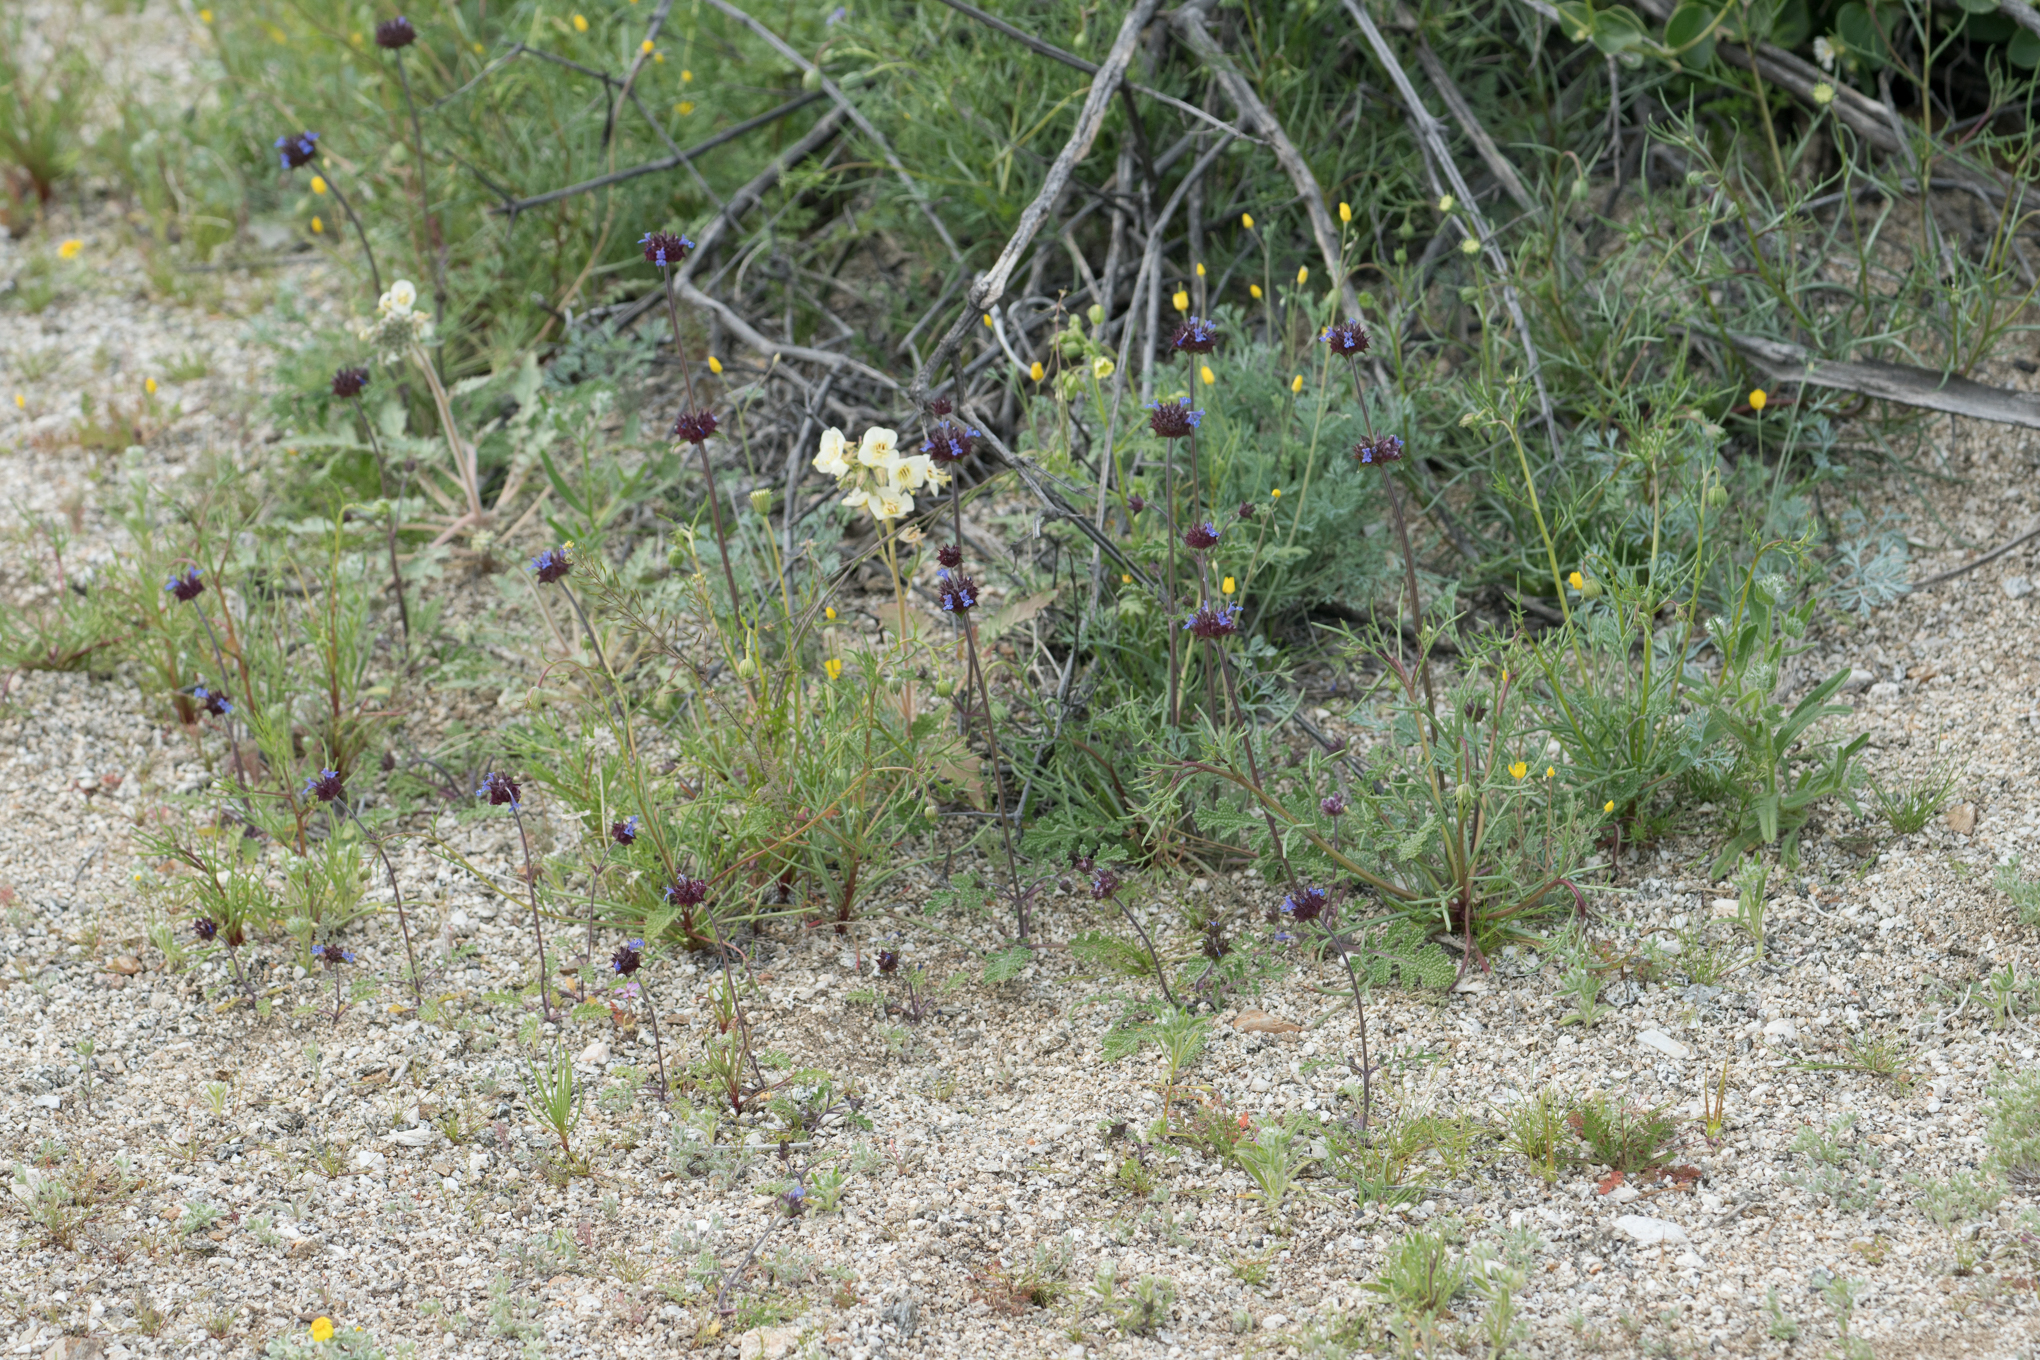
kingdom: Plantae
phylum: Tracheophyta
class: Magnoliopsida
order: Lamiales
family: Lamiaceae
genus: Salvia
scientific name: Salvia columbariae
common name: Chia
